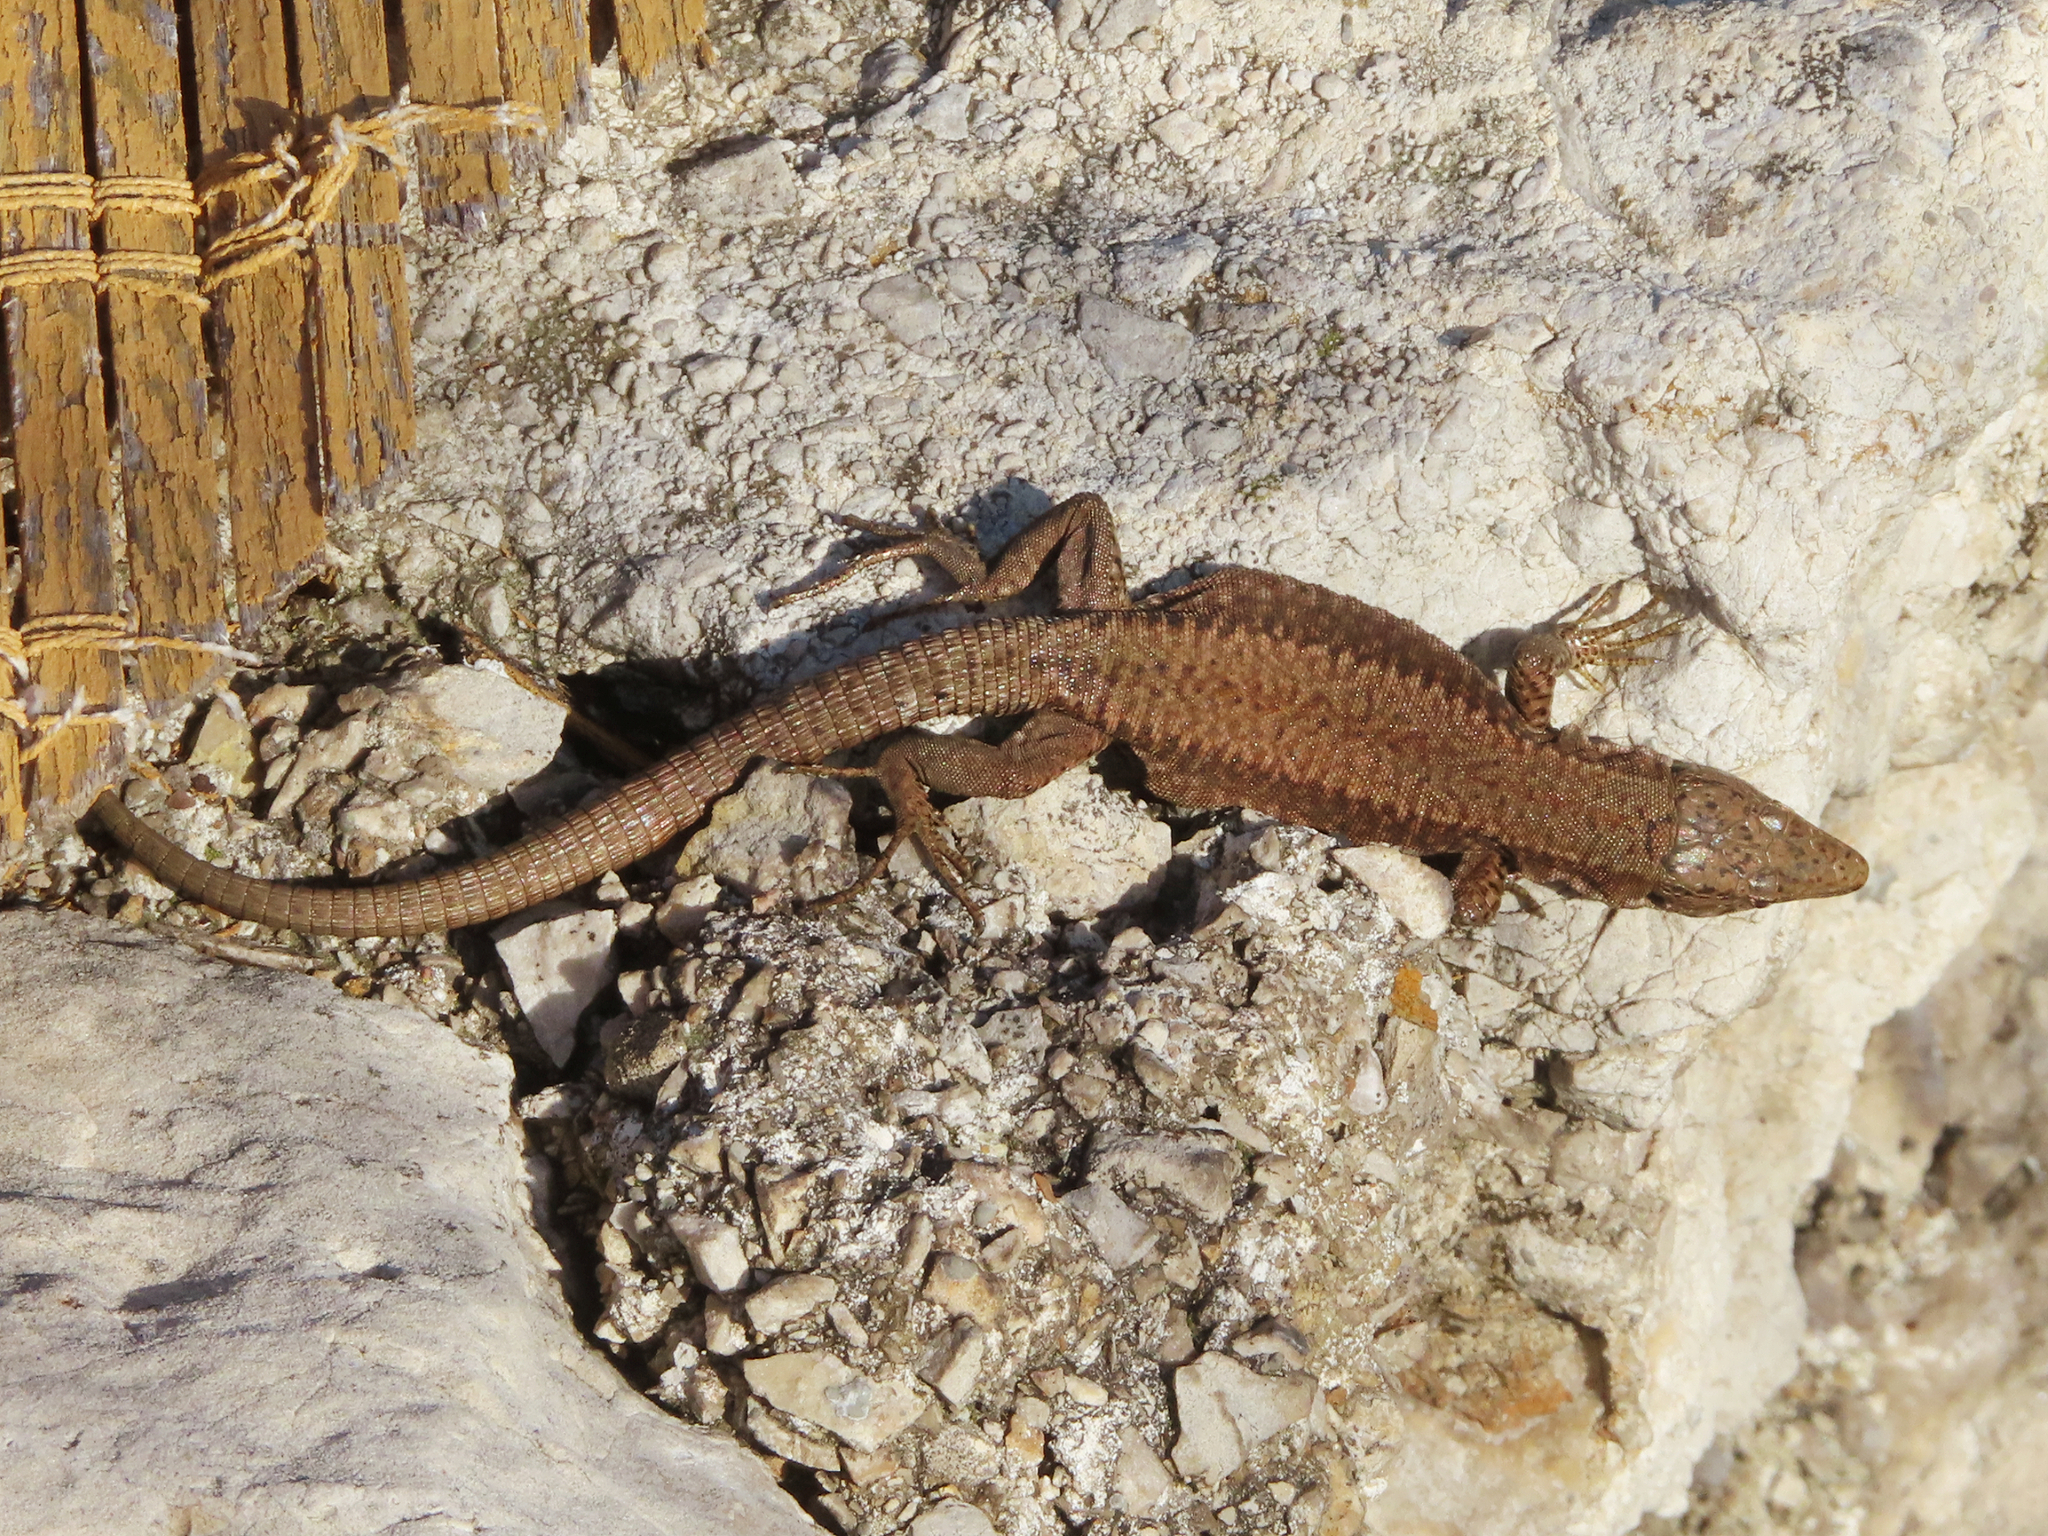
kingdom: Animalia
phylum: Chordata
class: Squamata
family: Lacertidae
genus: Podarcis
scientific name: Podarcis muralis
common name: Common wall lizard
